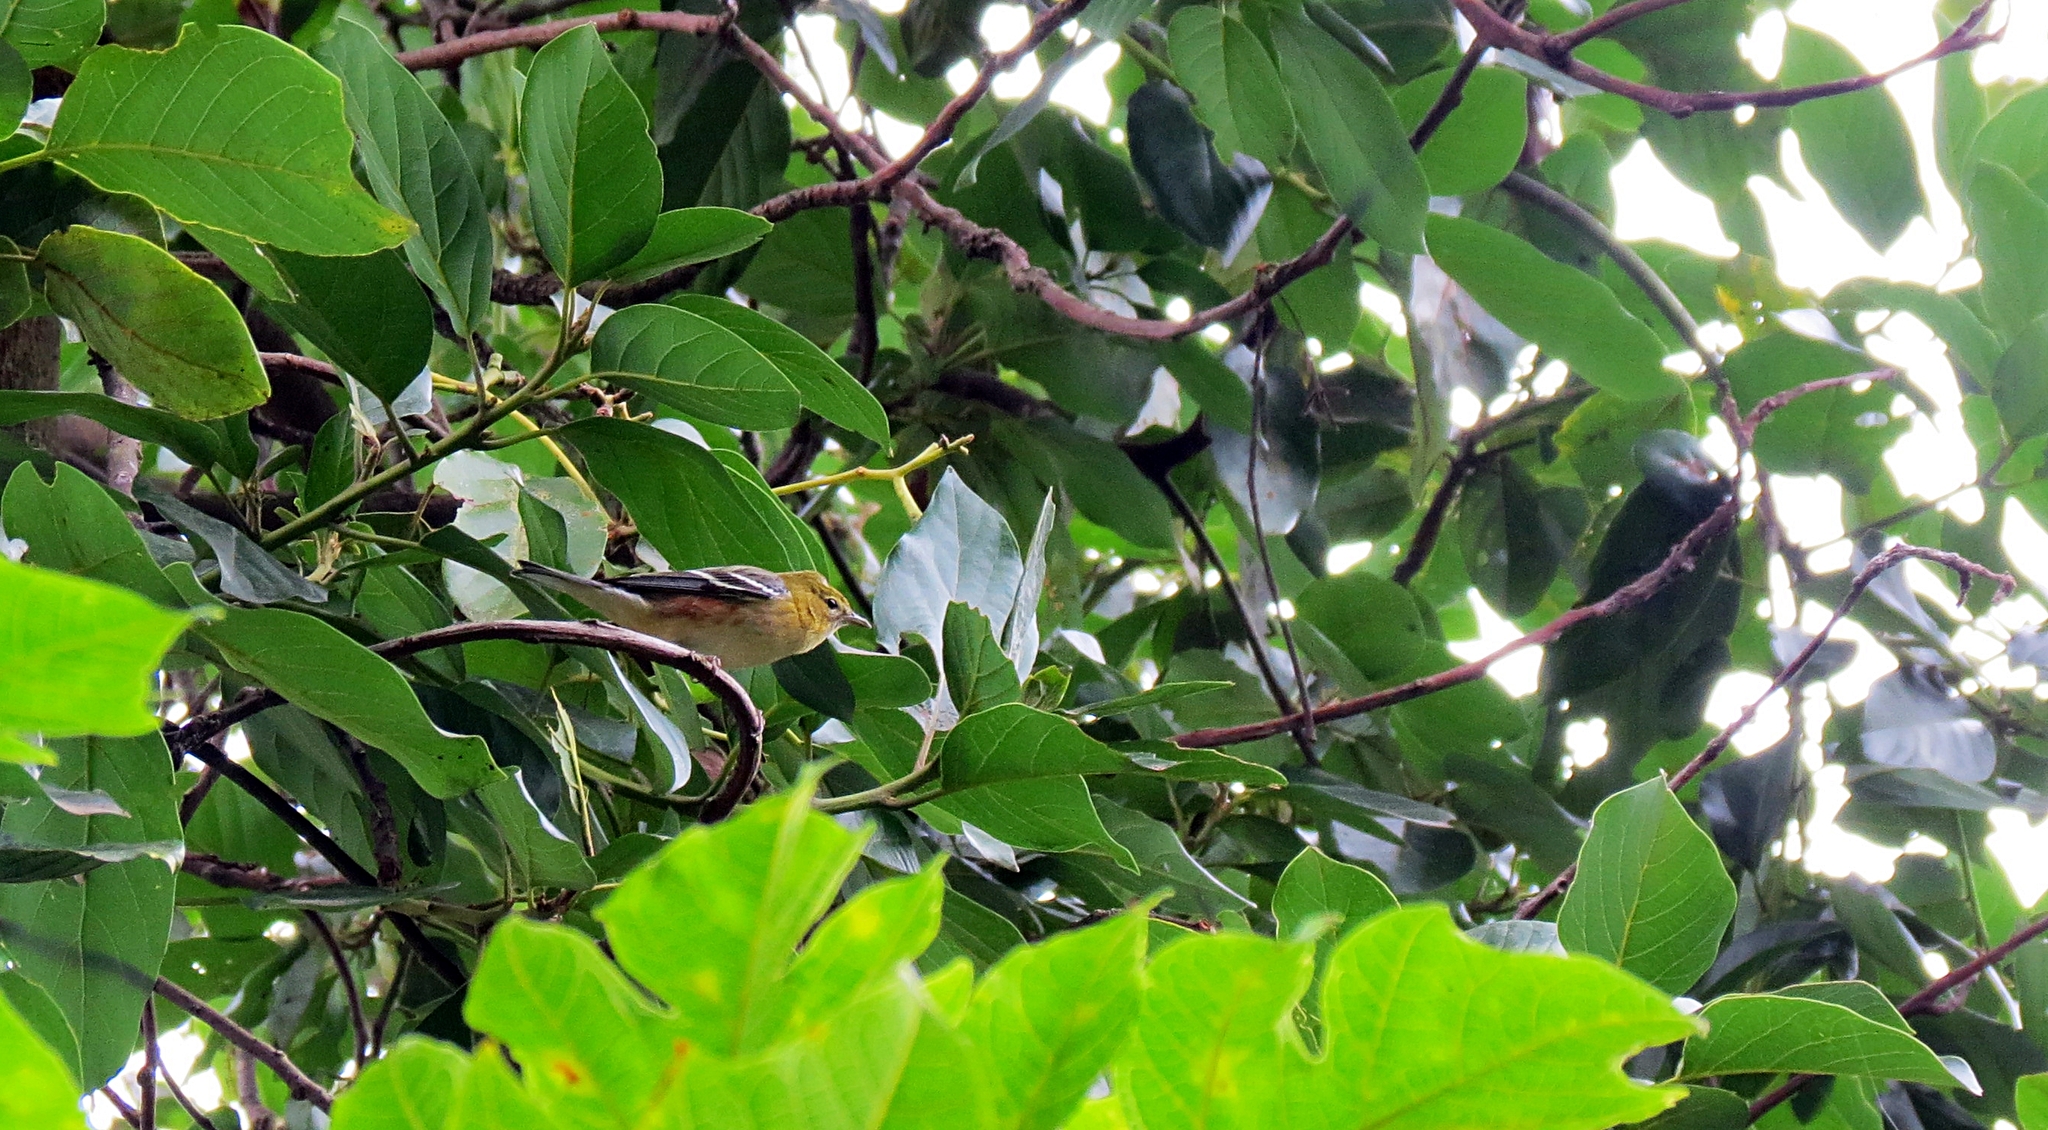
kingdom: Animalia
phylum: Chordata
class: Aves
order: Passeriformes
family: Parulidae
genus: Setophaga
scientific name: Setophaga castanea
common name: Bay-breasted warbler
